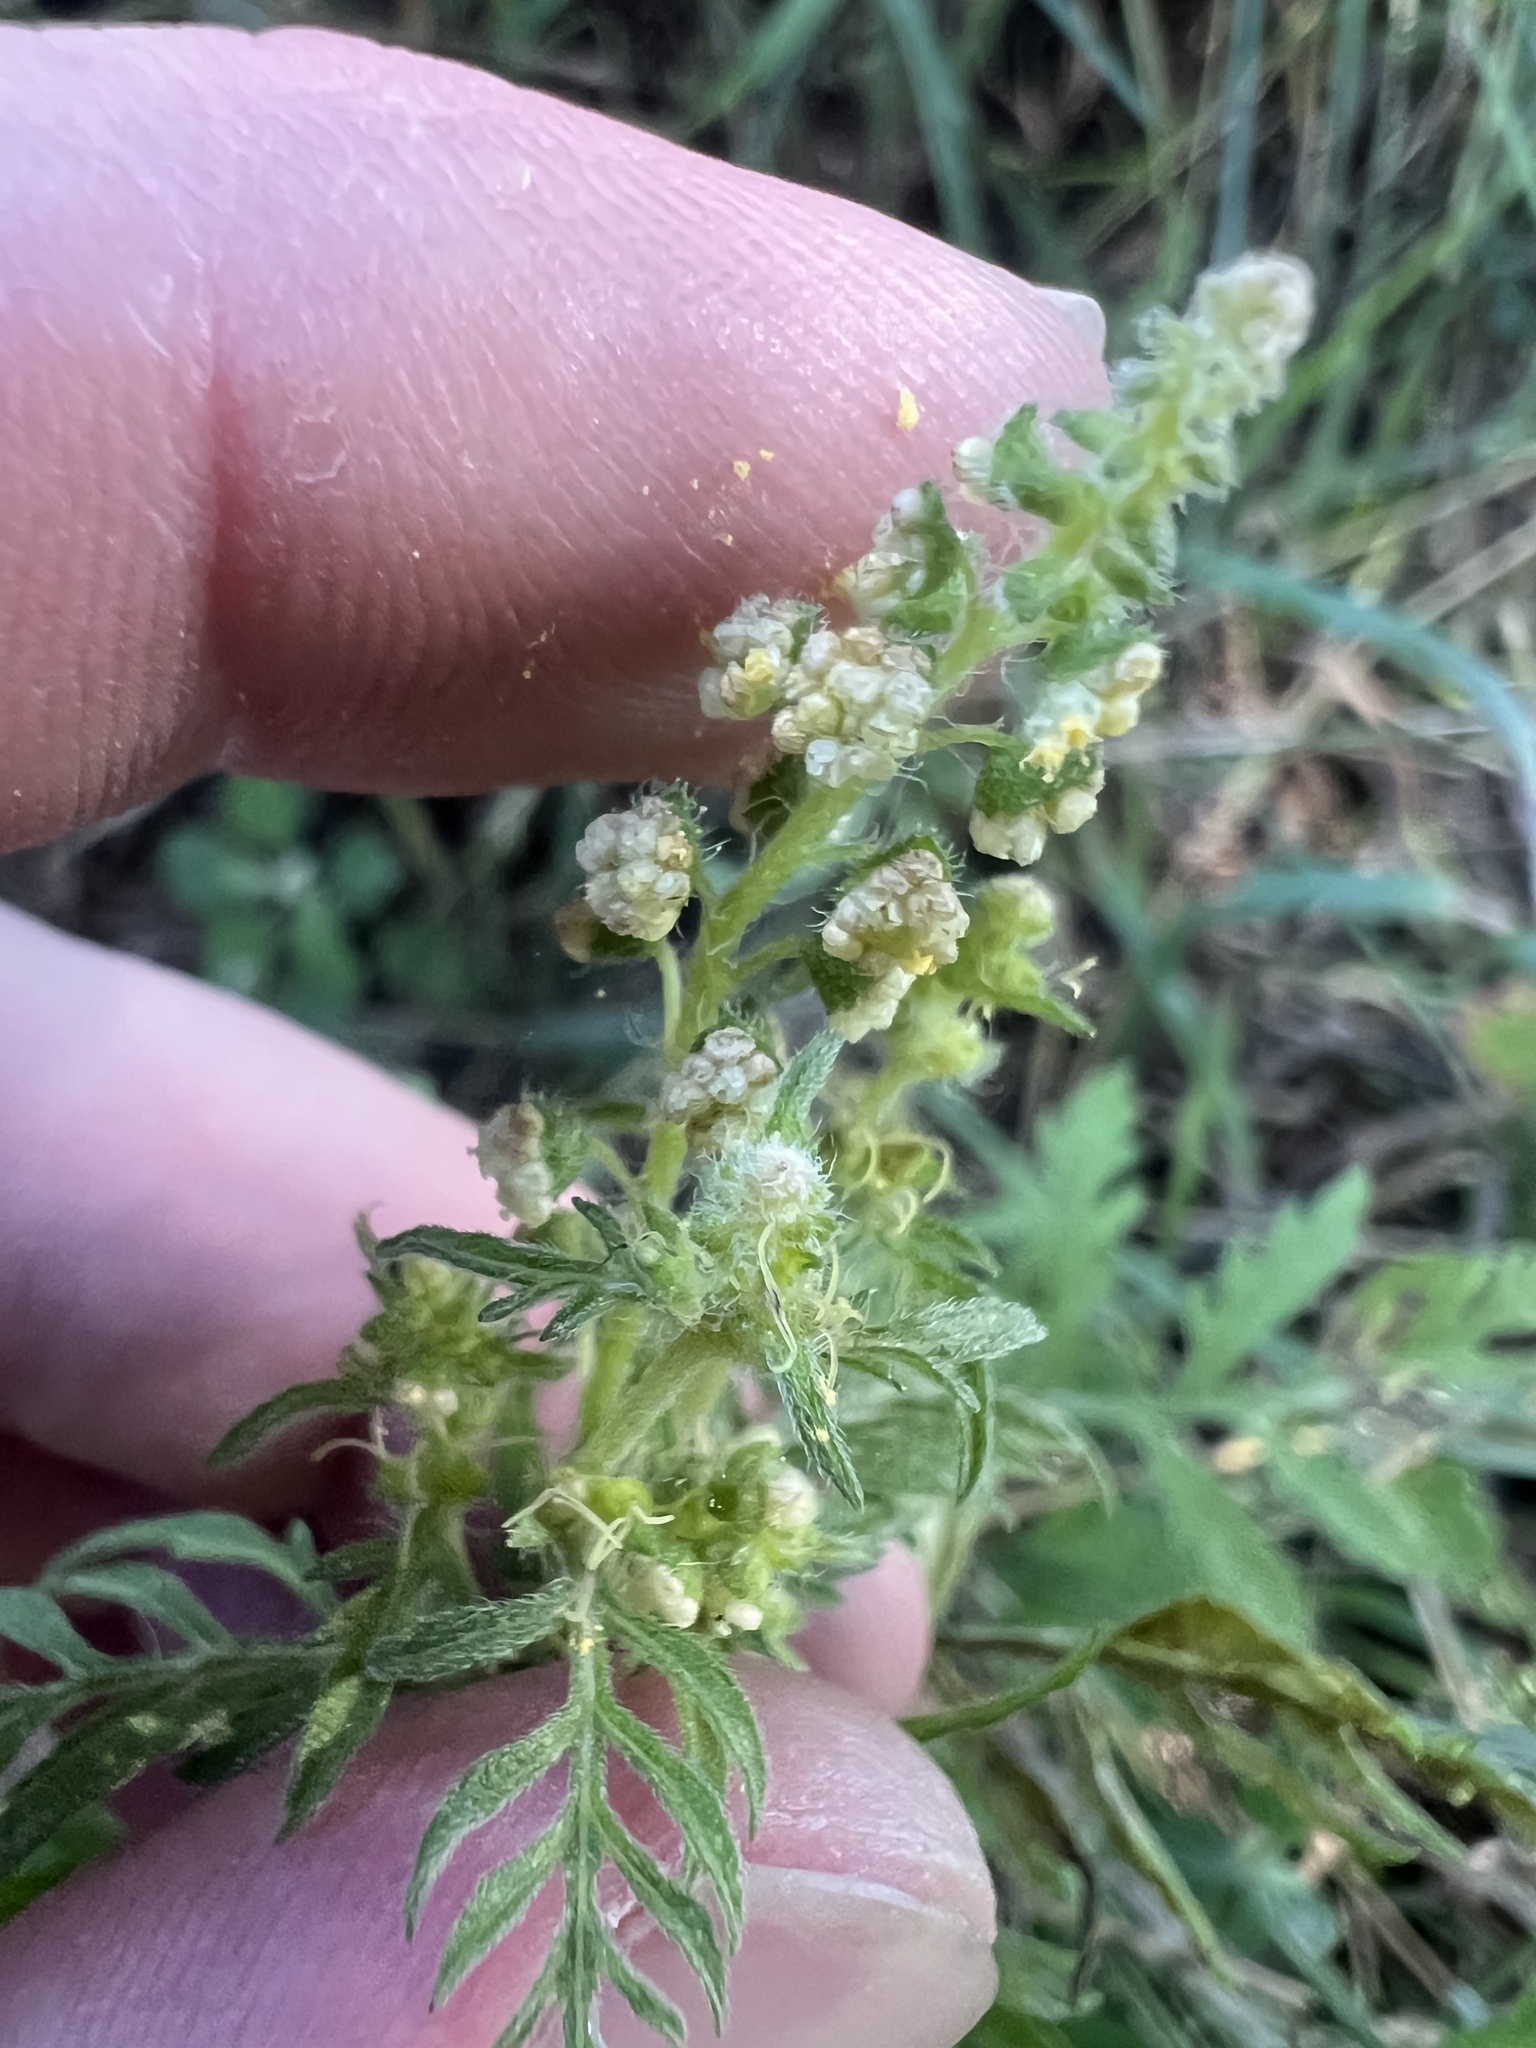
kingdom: Plantae
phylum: Tracheophyta
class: Magnoliopsida
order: Asterales
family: Asteraceae
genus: Ambrosia
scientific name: Ambrosia artemisiifolia
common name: Annual ragweed
